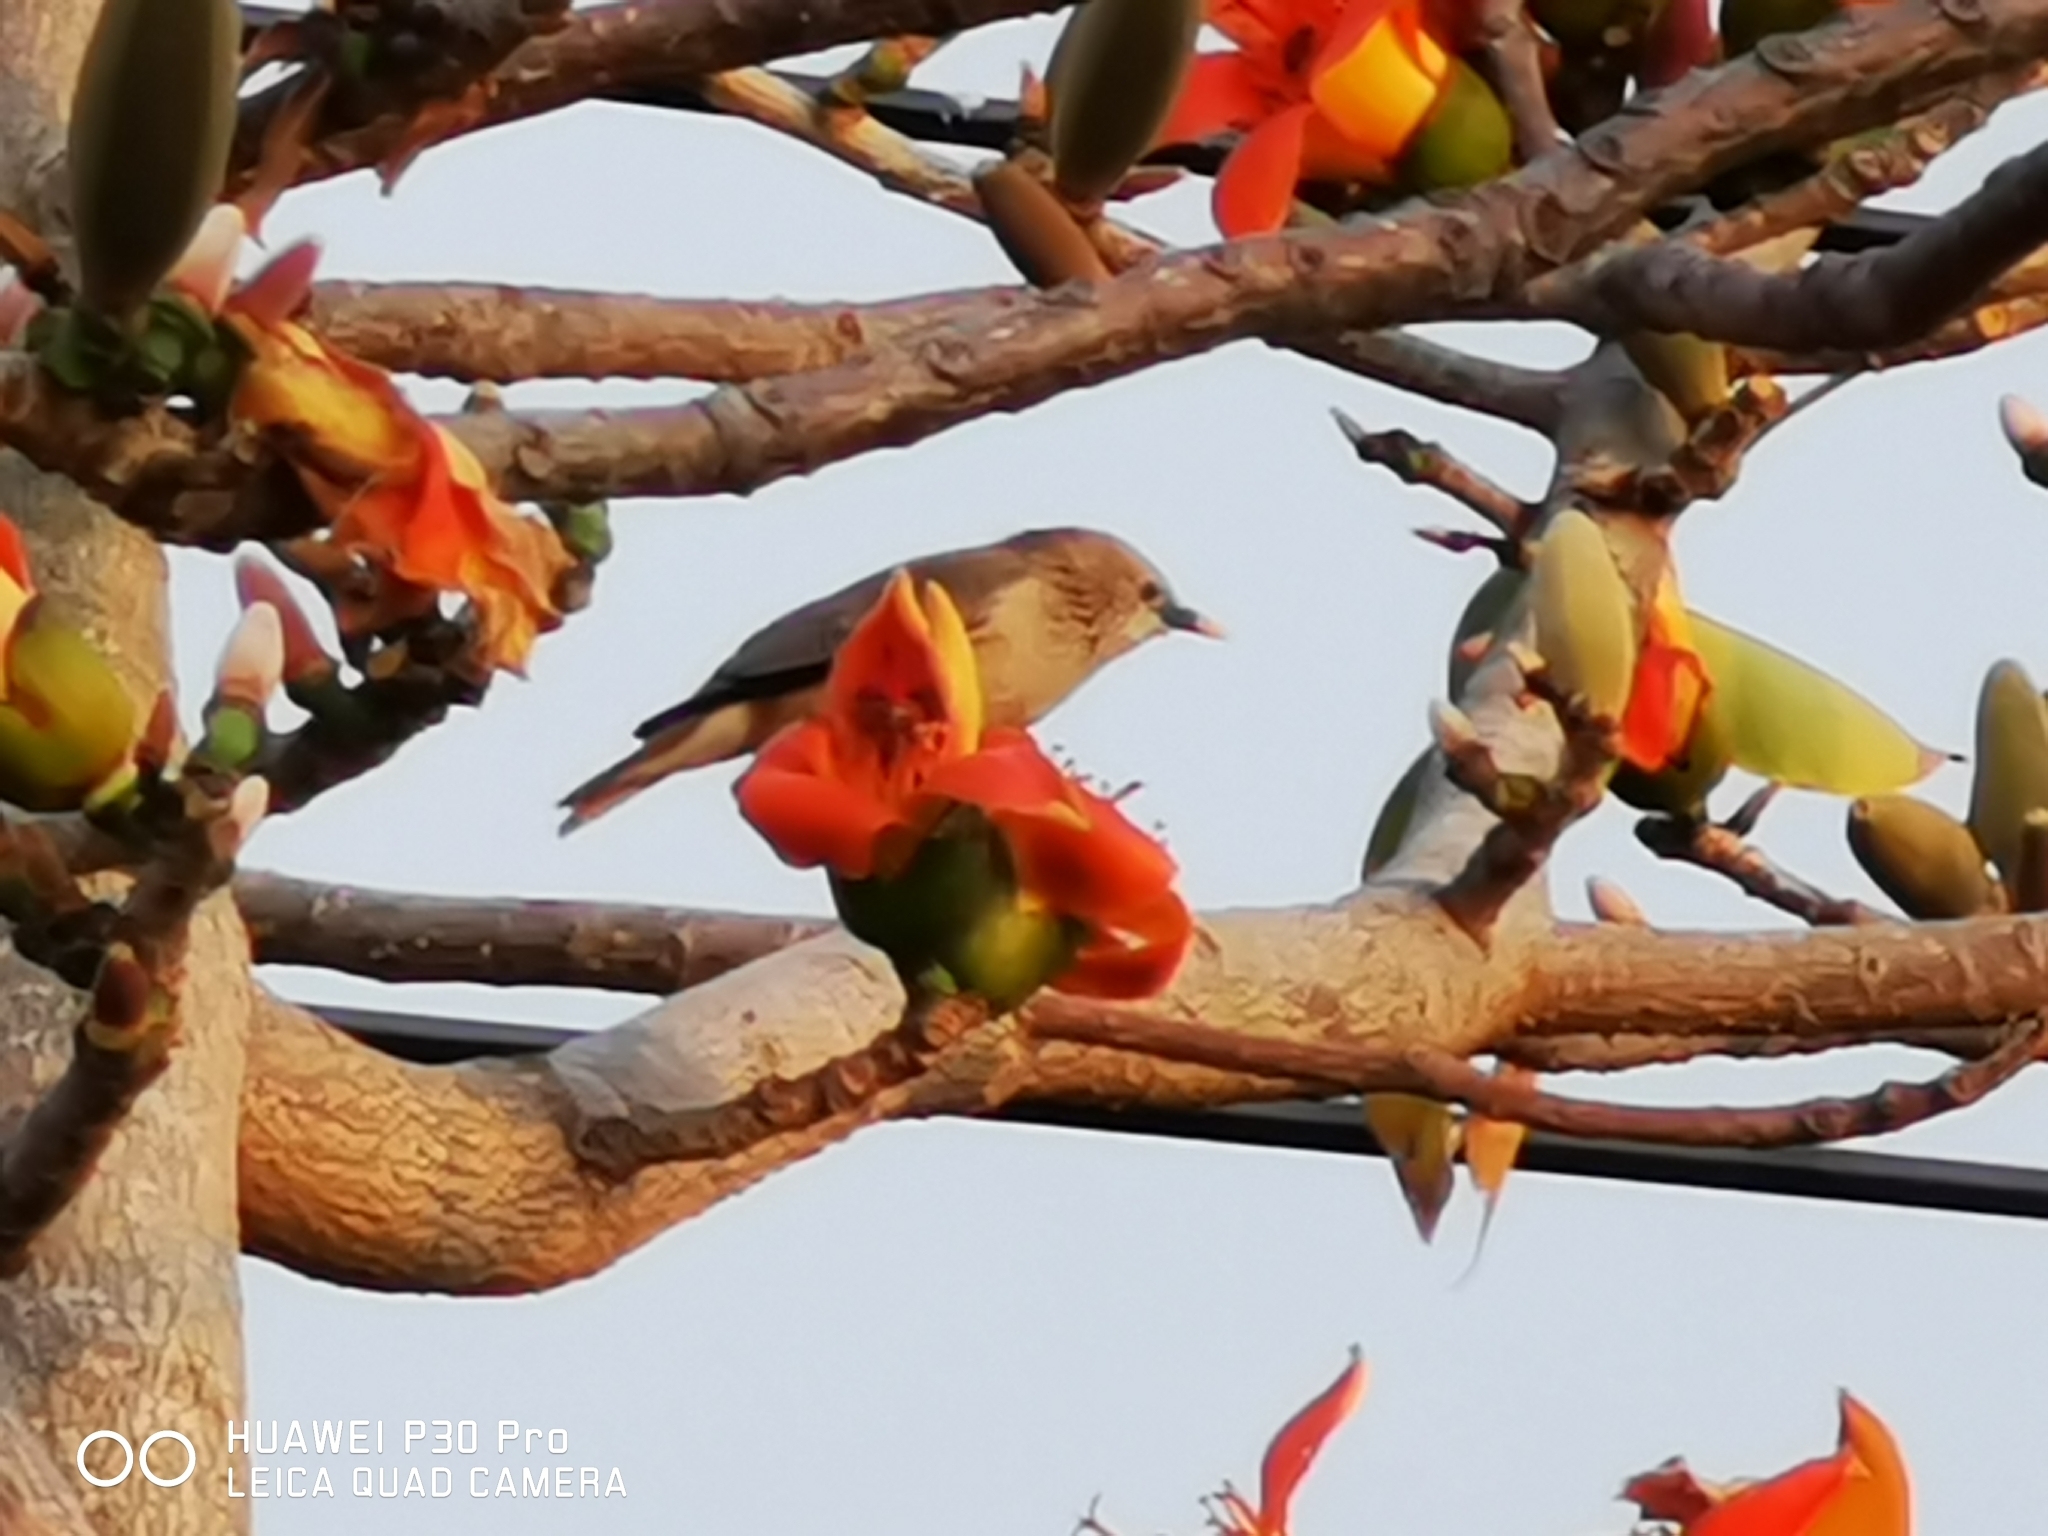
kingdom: Animalia
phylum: Chordata
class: Aves
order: Passeriformes
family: Sturnidae
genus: Sturnia
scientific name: Sturnia malabarica
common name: Chestnut-tailed starling
